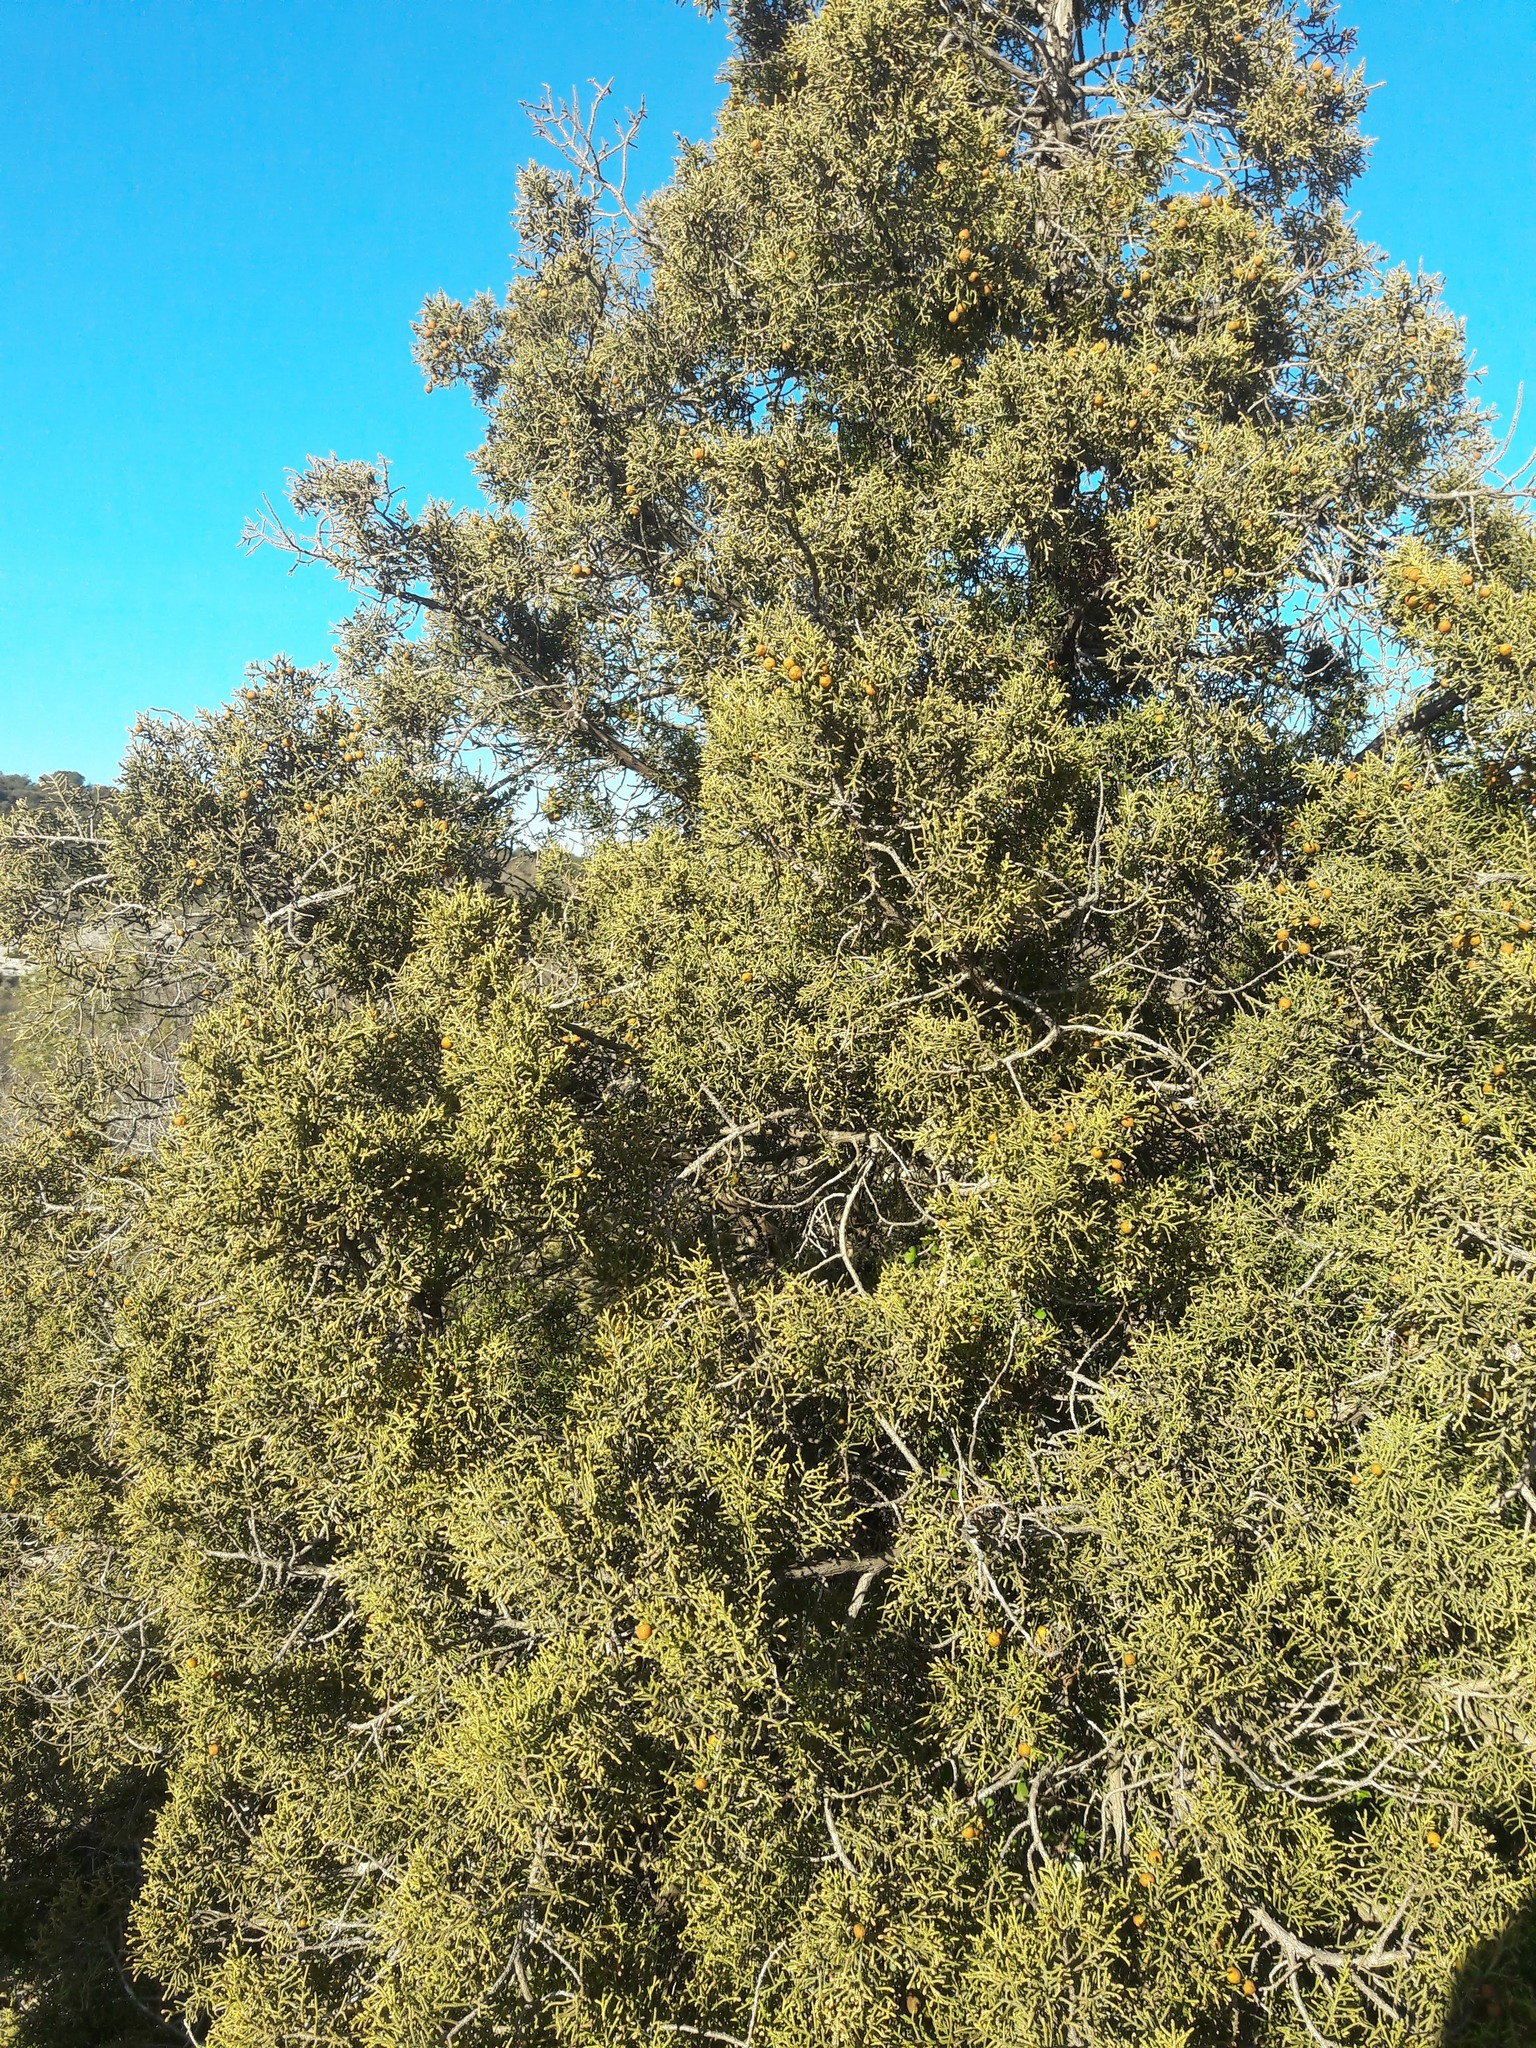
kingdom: Plantae
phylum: Tracheophyta
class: Pinopsida
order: Pinales
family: Cupressaceae
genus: Juniperus
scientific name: Juniperus phoenicea
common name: Phoenician juniper
